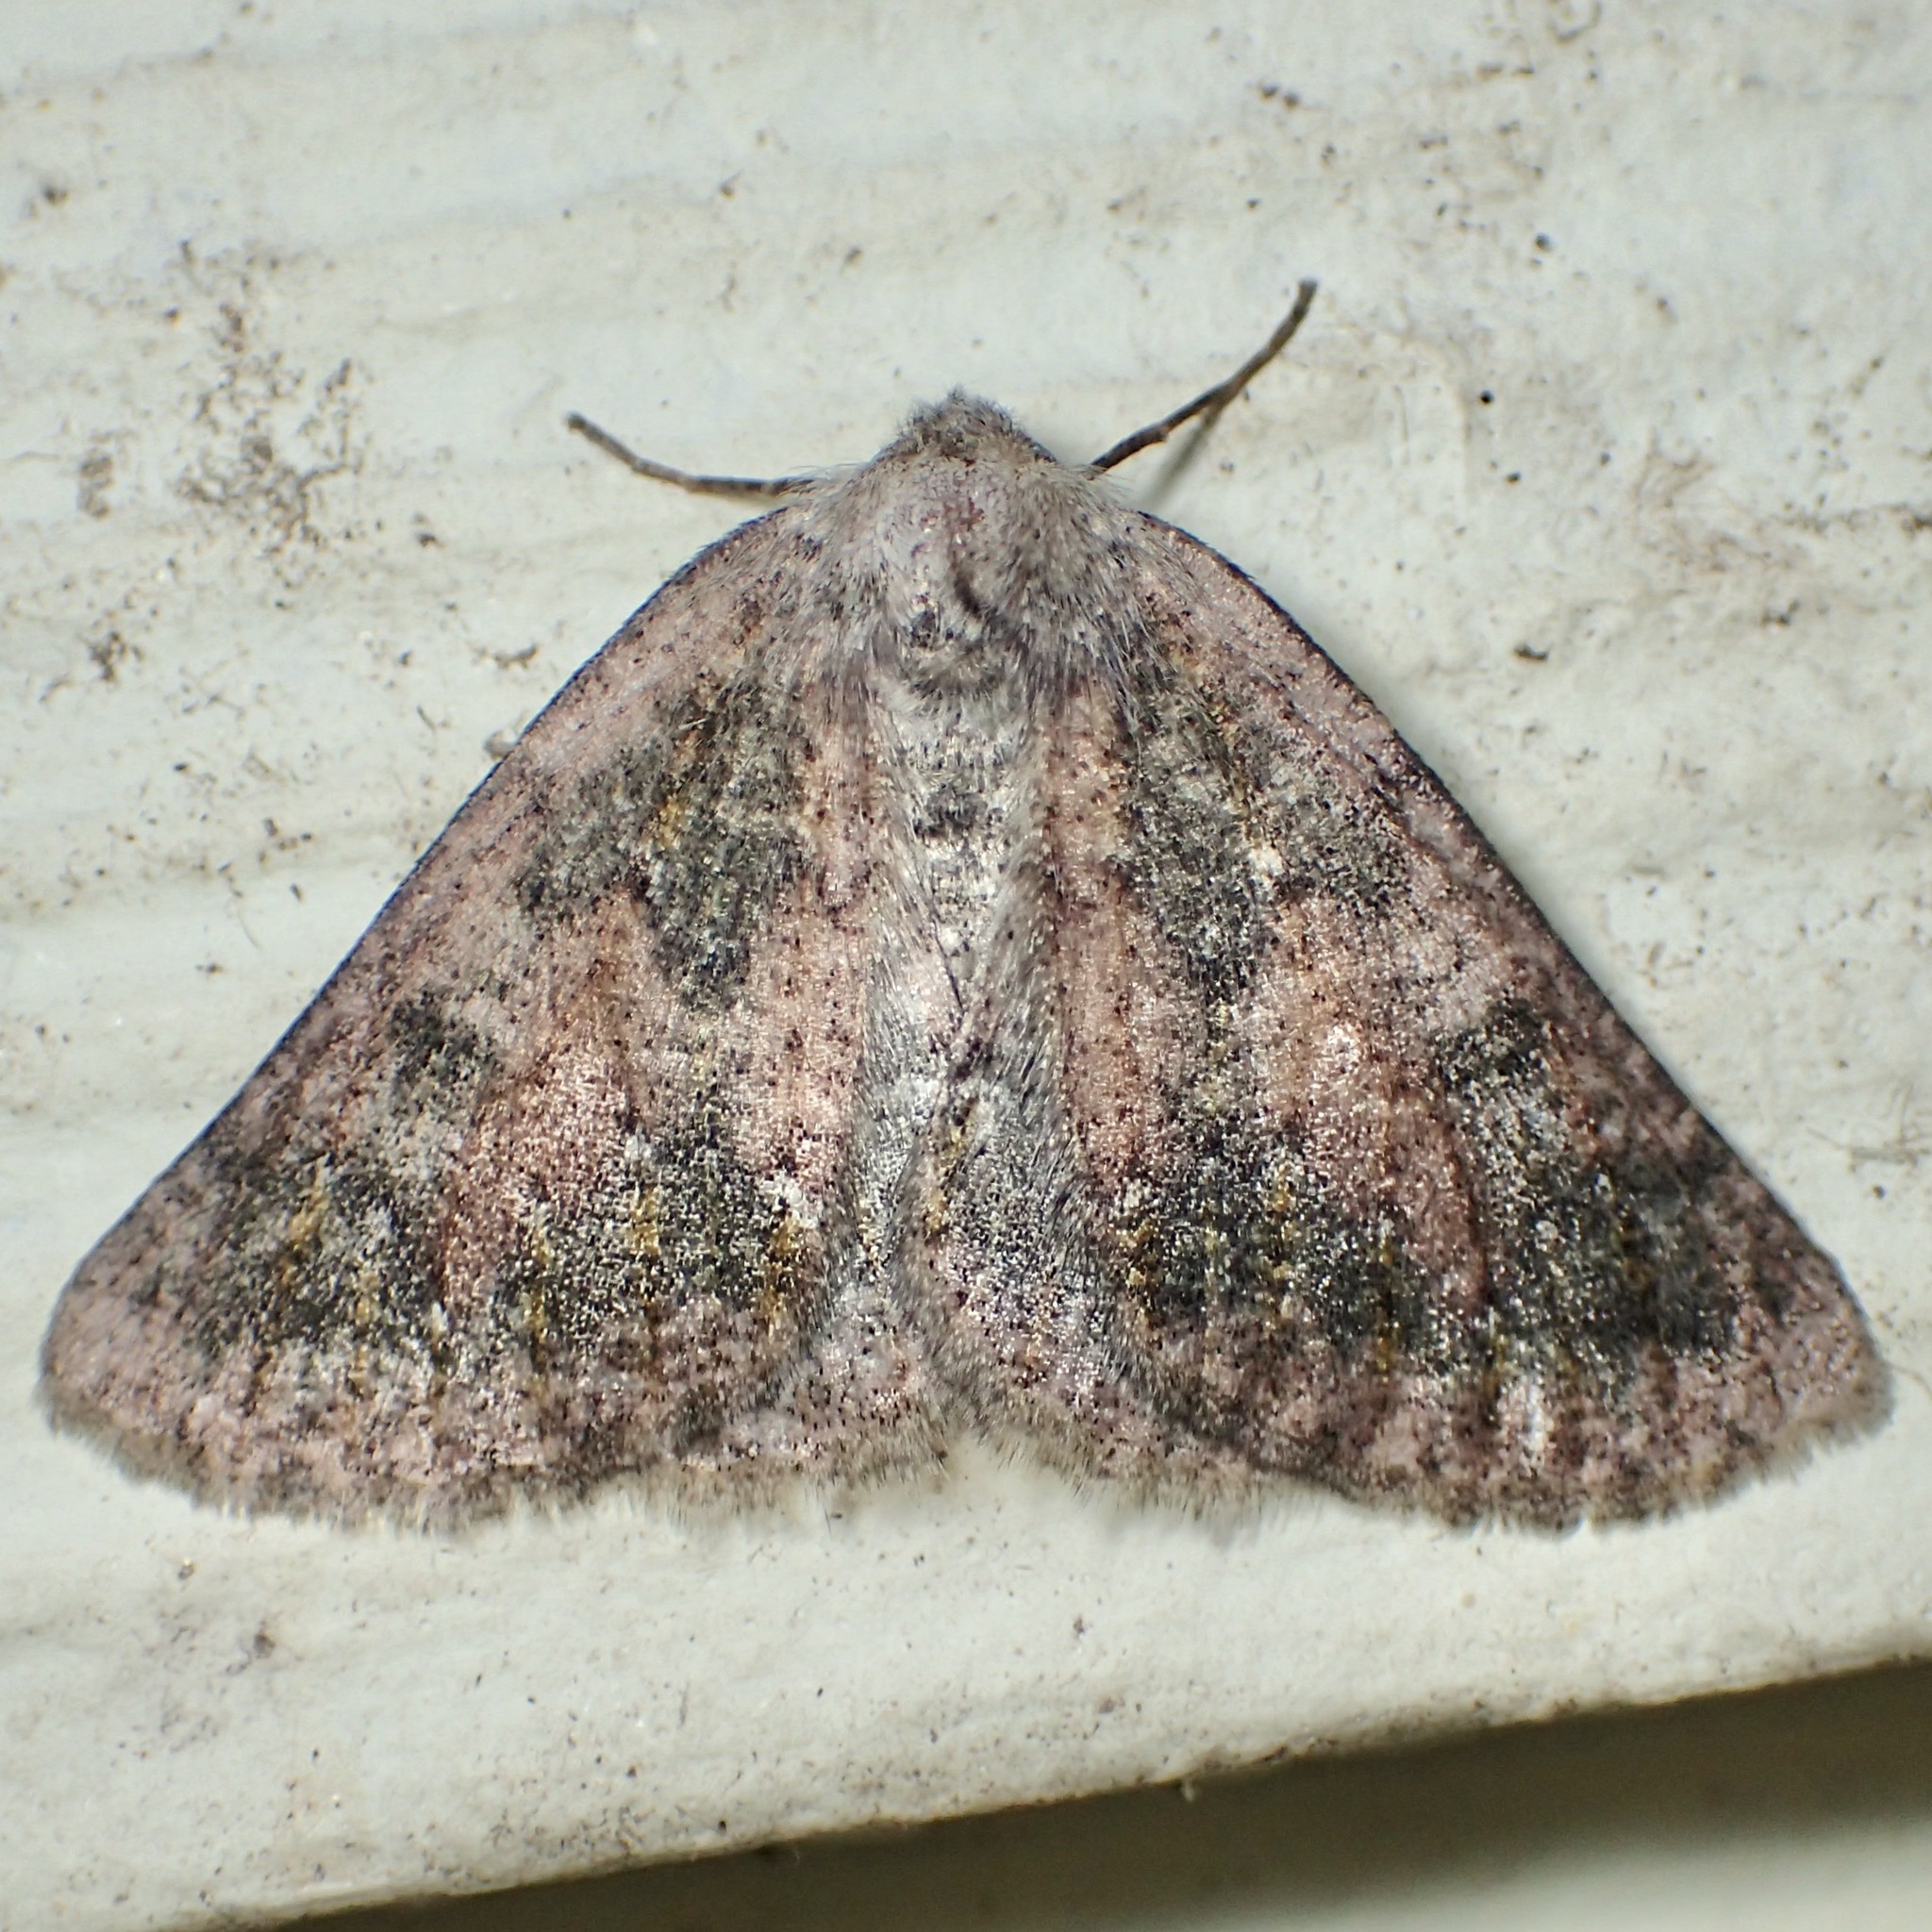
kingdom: Animalia
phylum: Arthropoda
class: Insecta
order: Lepidoptera
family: Geometridae
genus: Nemeris
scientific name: Nemeris sternitzkyi
